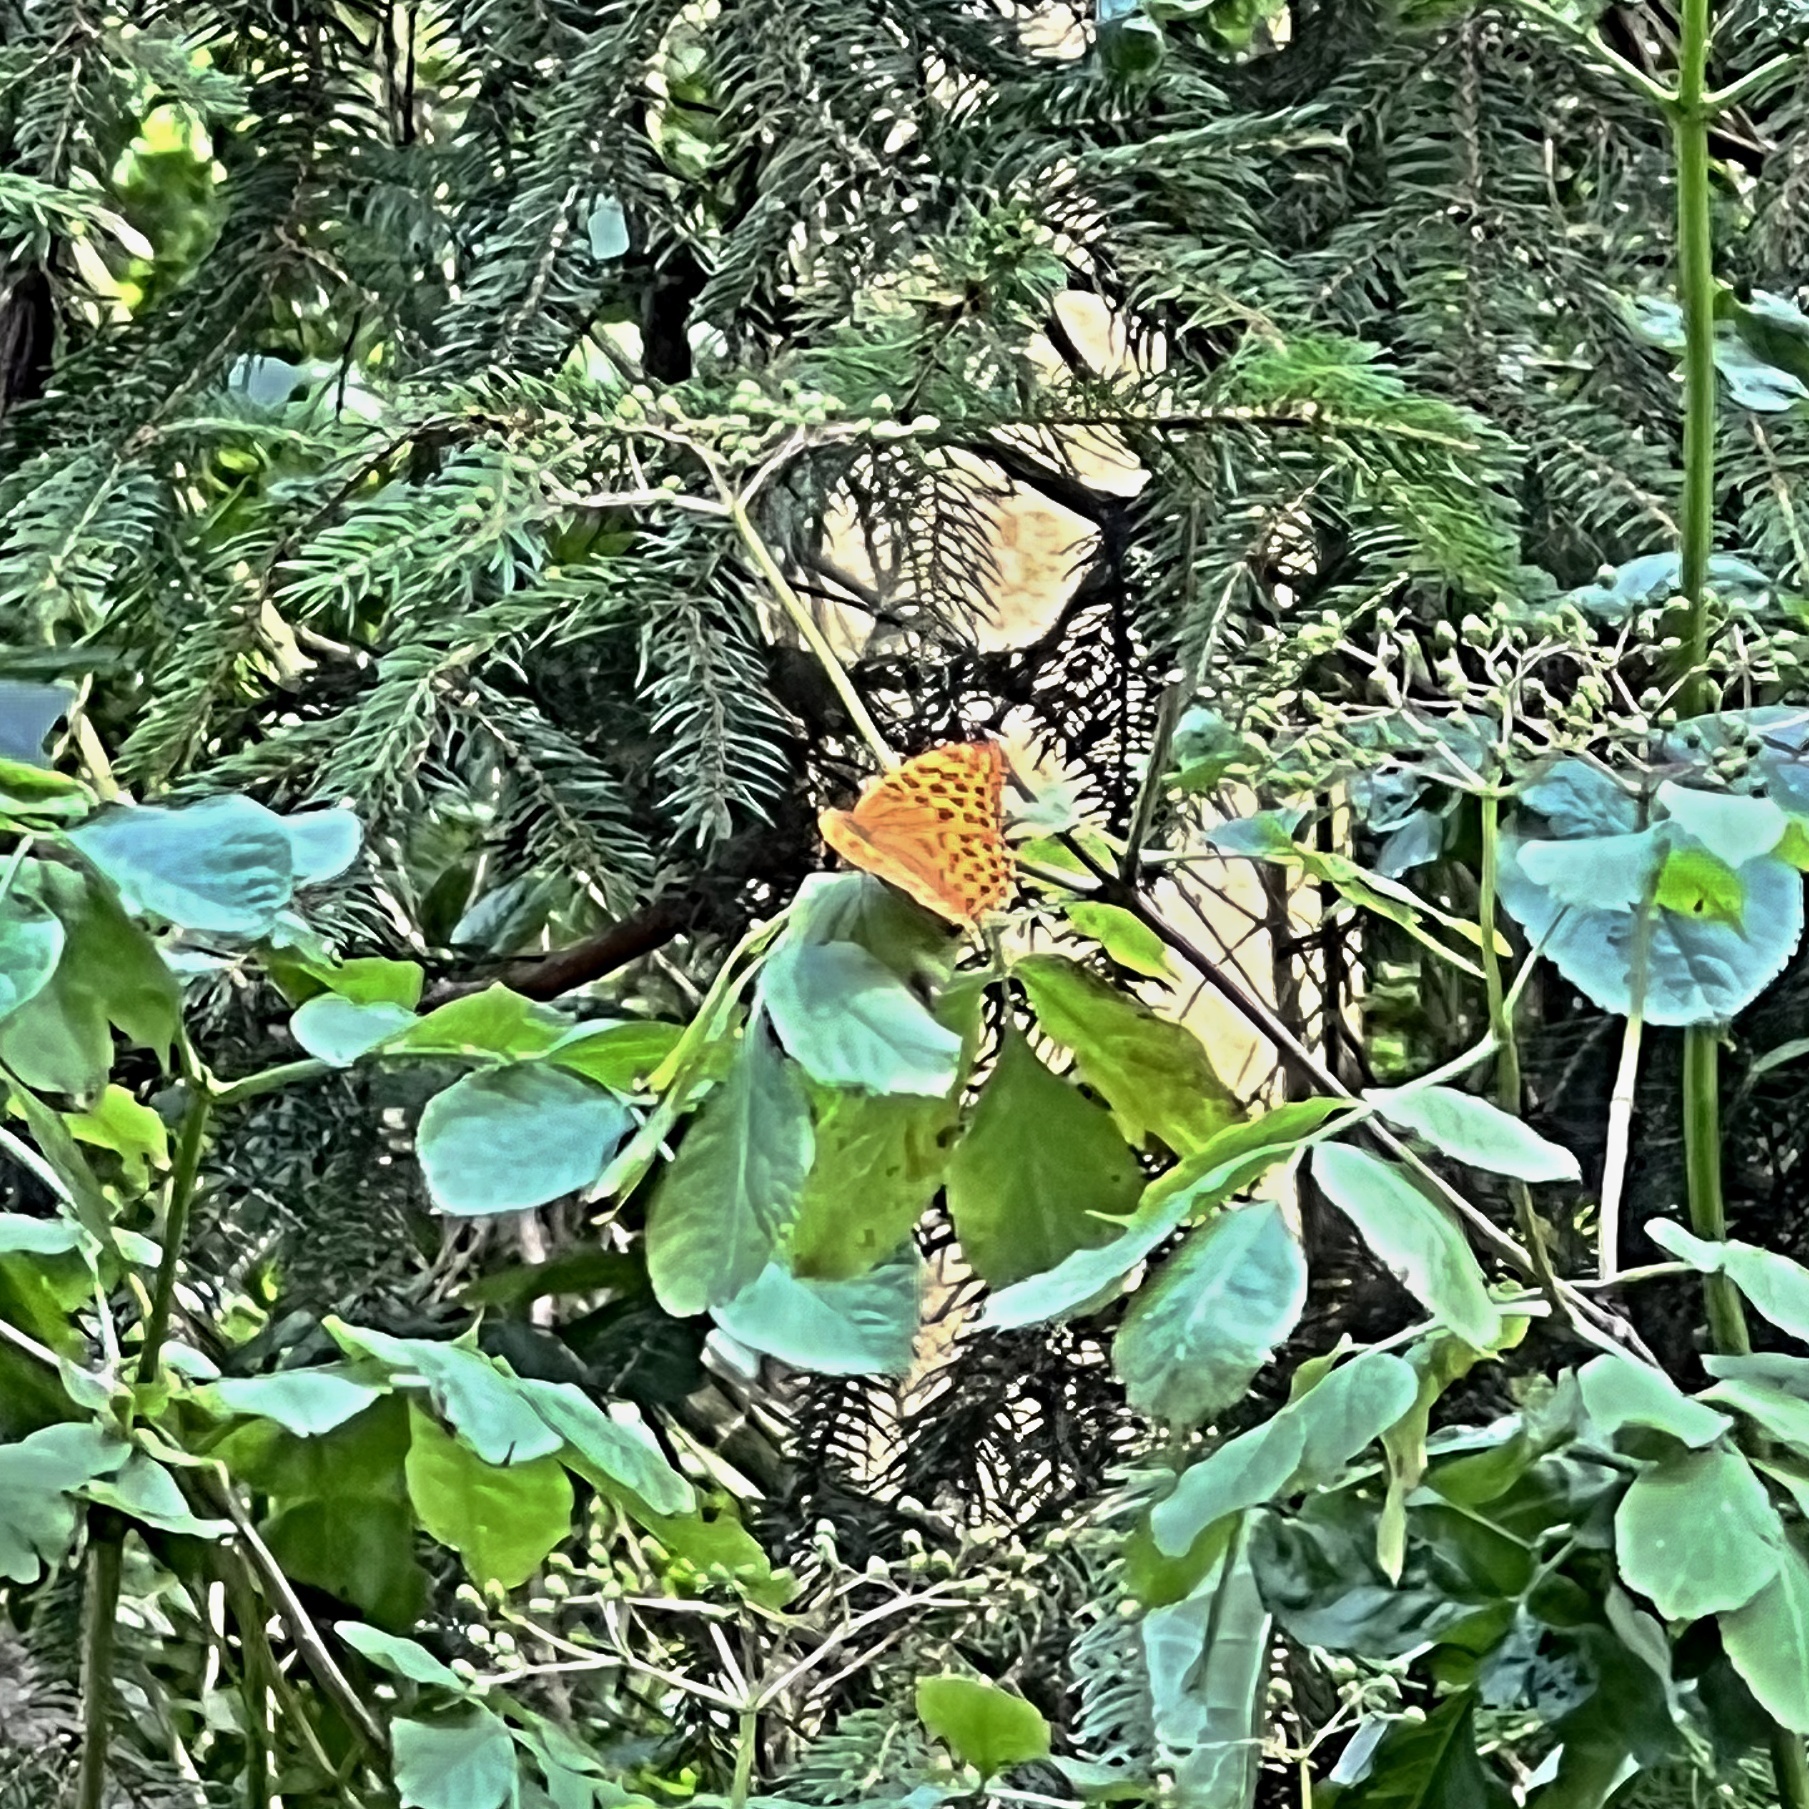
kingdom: Animalia
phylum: Arthropoda
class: Insecta
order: Lepidoptera
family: Nymphalidae
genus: Argynnis
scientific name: Argynnis paphia
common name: Silver-washed fritillary
